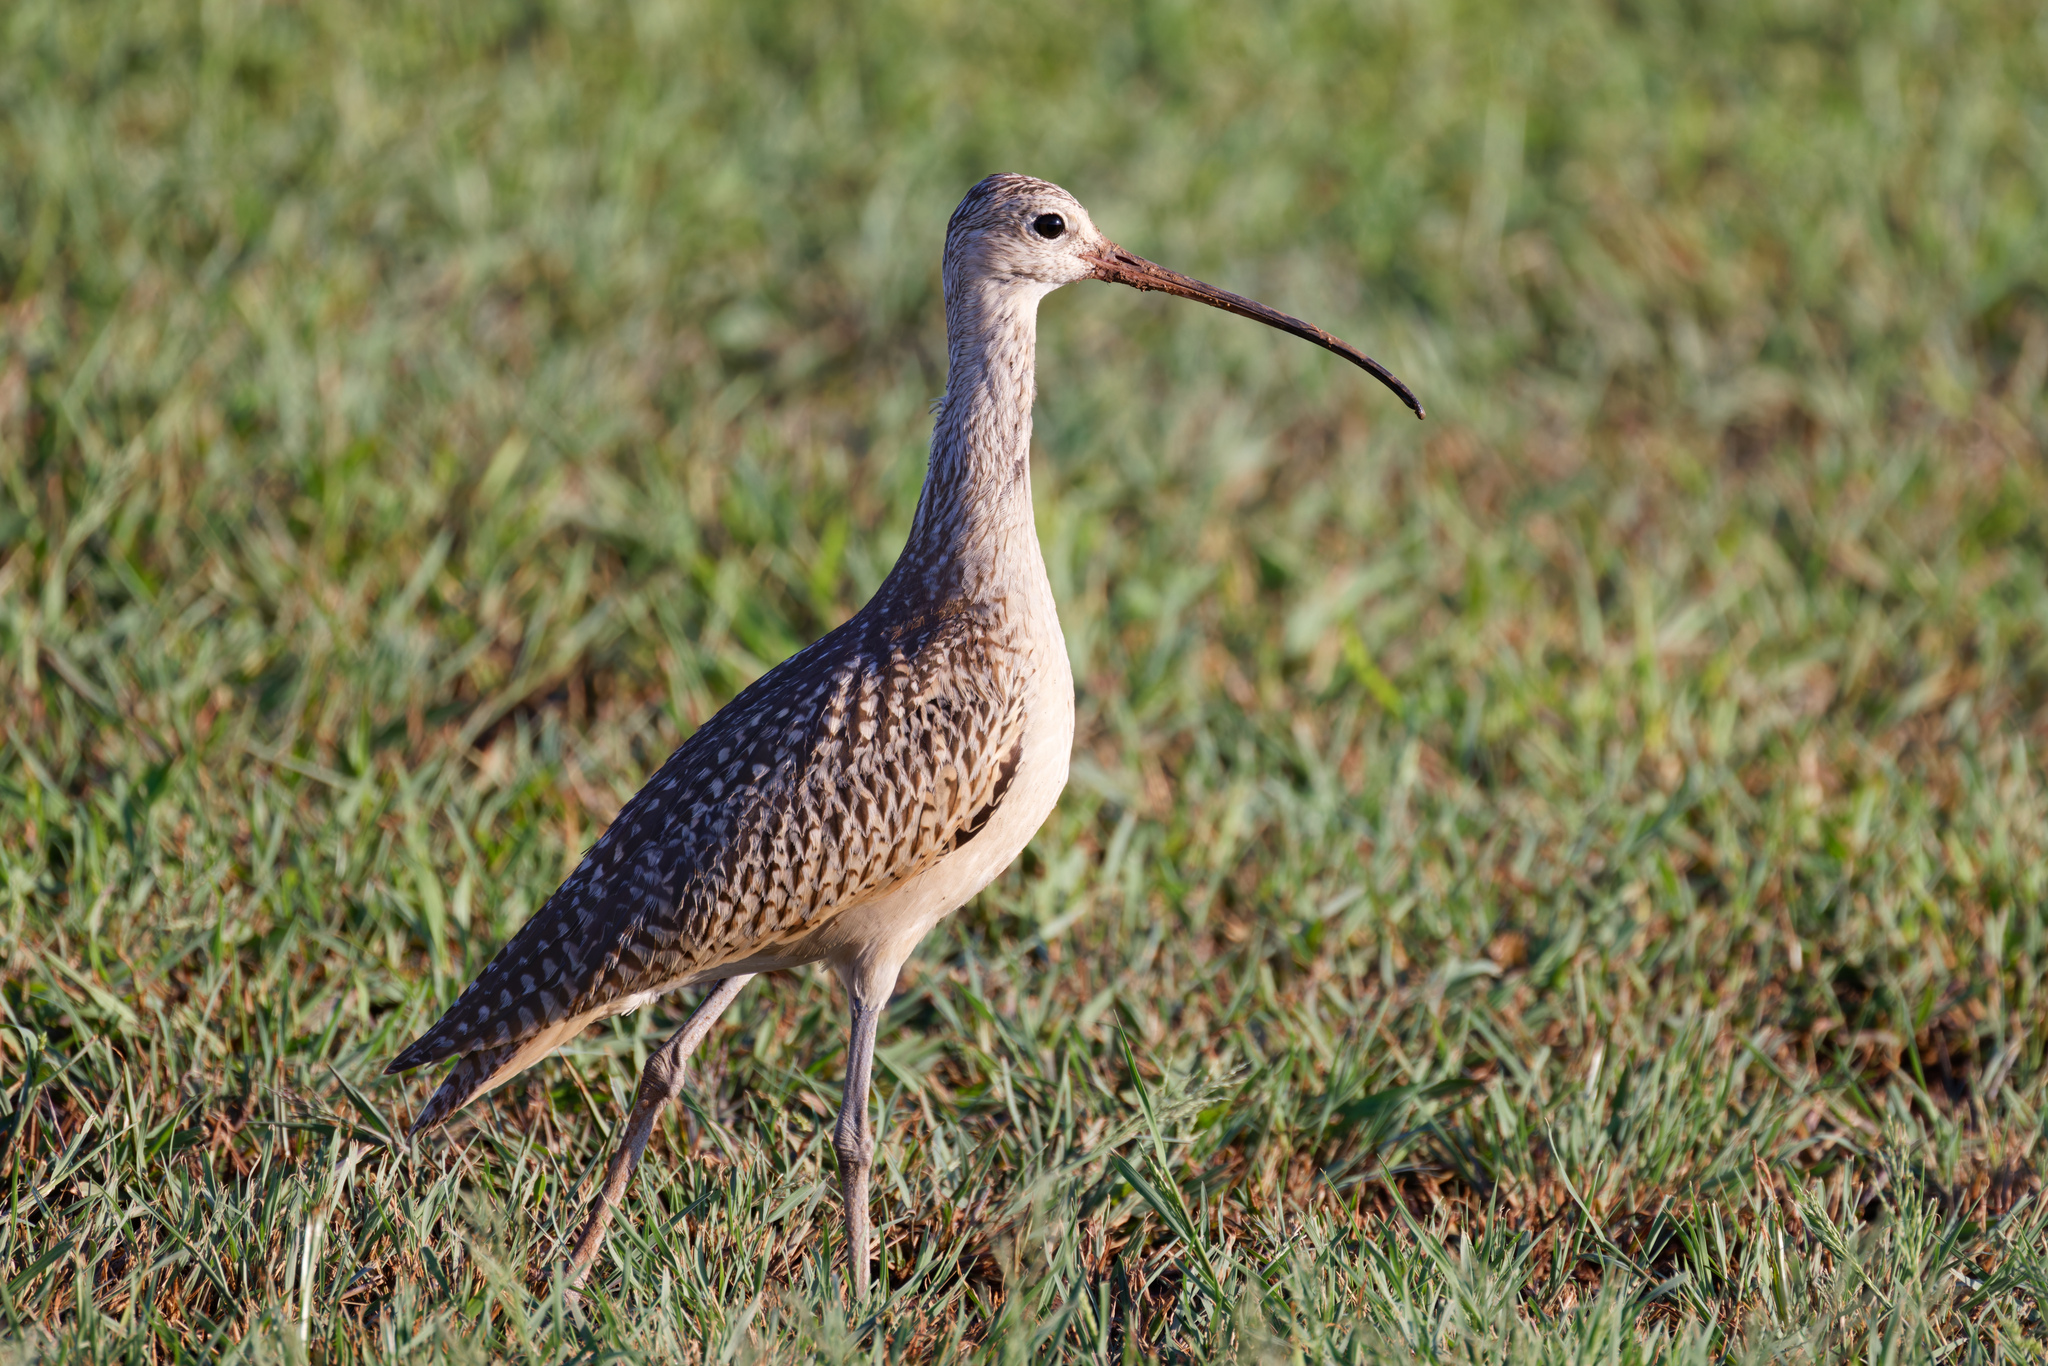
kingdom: Animalia
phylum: Chordata
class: Aves
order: Charadriiformes
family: Scolopacidae
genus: Numenius
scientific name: Numenius americanus
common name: Long-billed curlew
